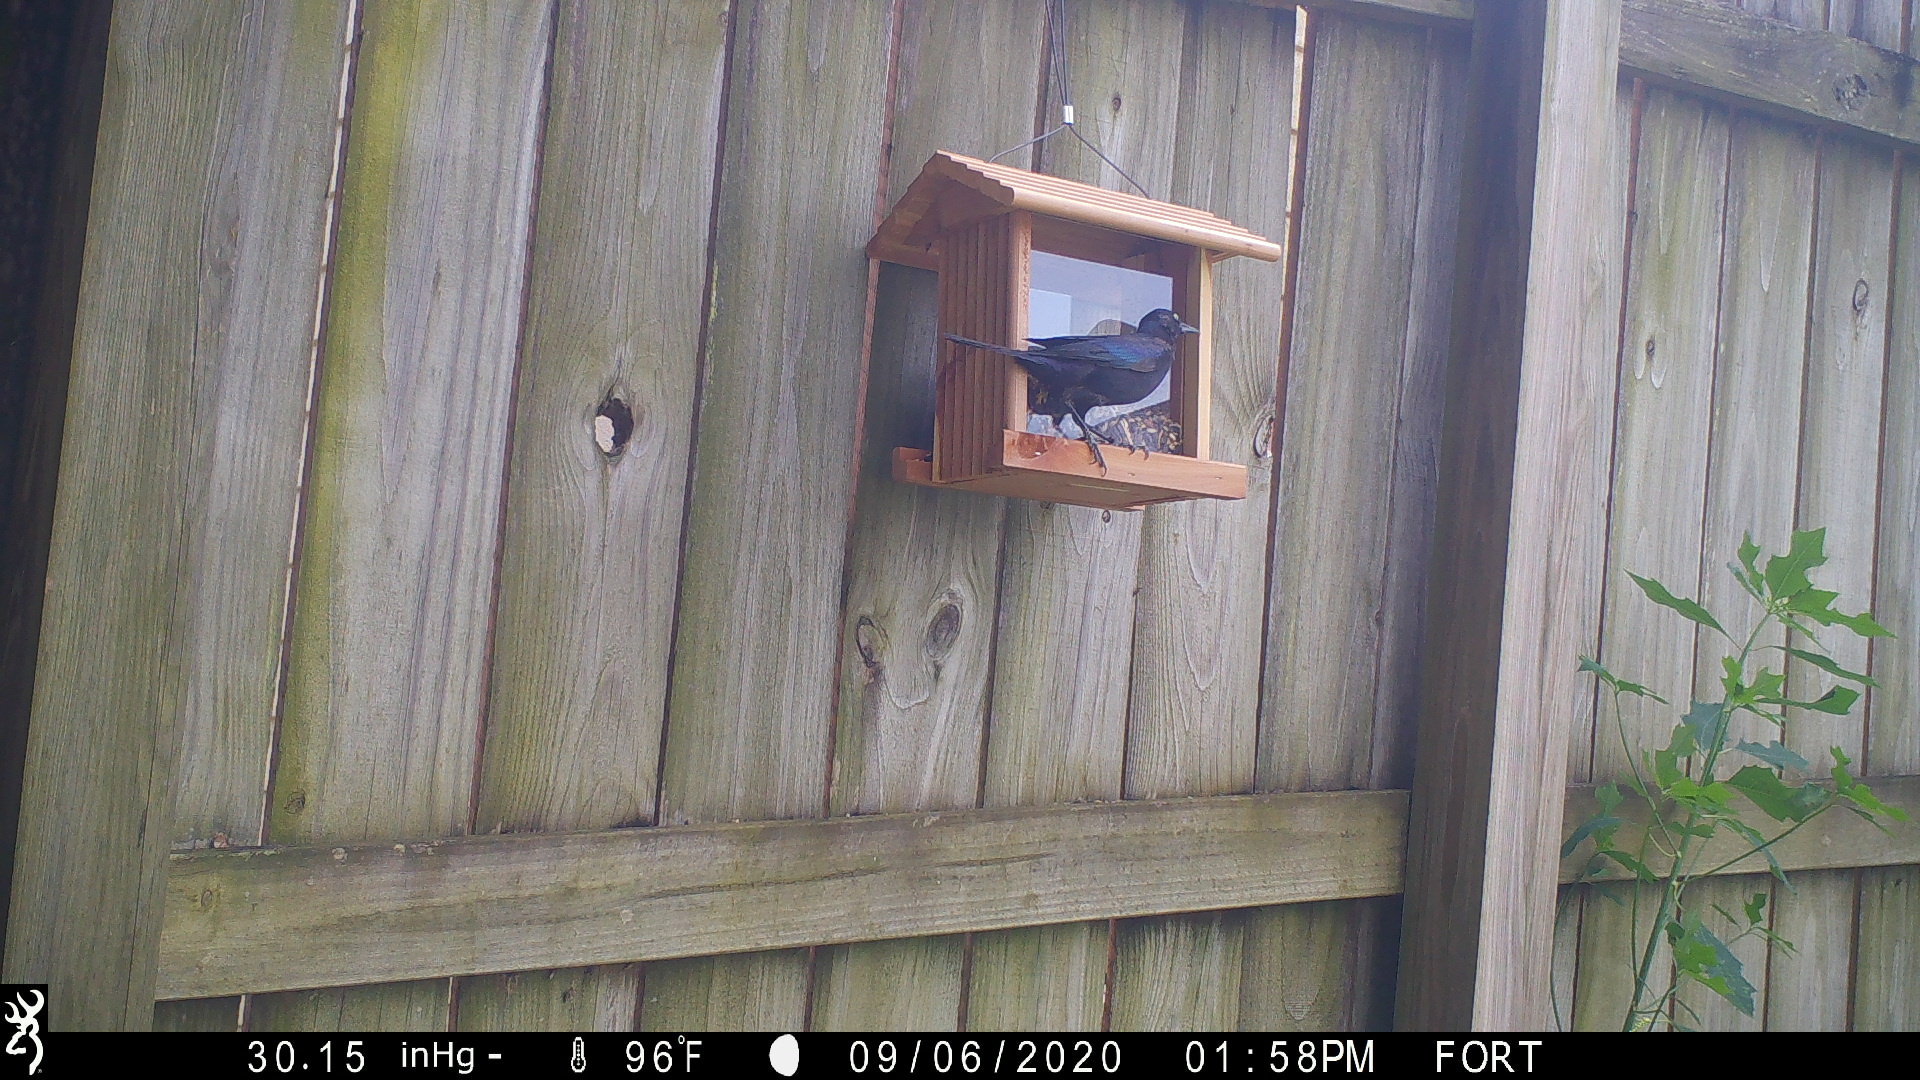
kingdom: Animalia
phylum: Chordata
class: Aves
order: Passeriformes
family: Icteridae
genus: Quiscalus
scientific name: Quiscalus quiscula
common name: Common grackle
